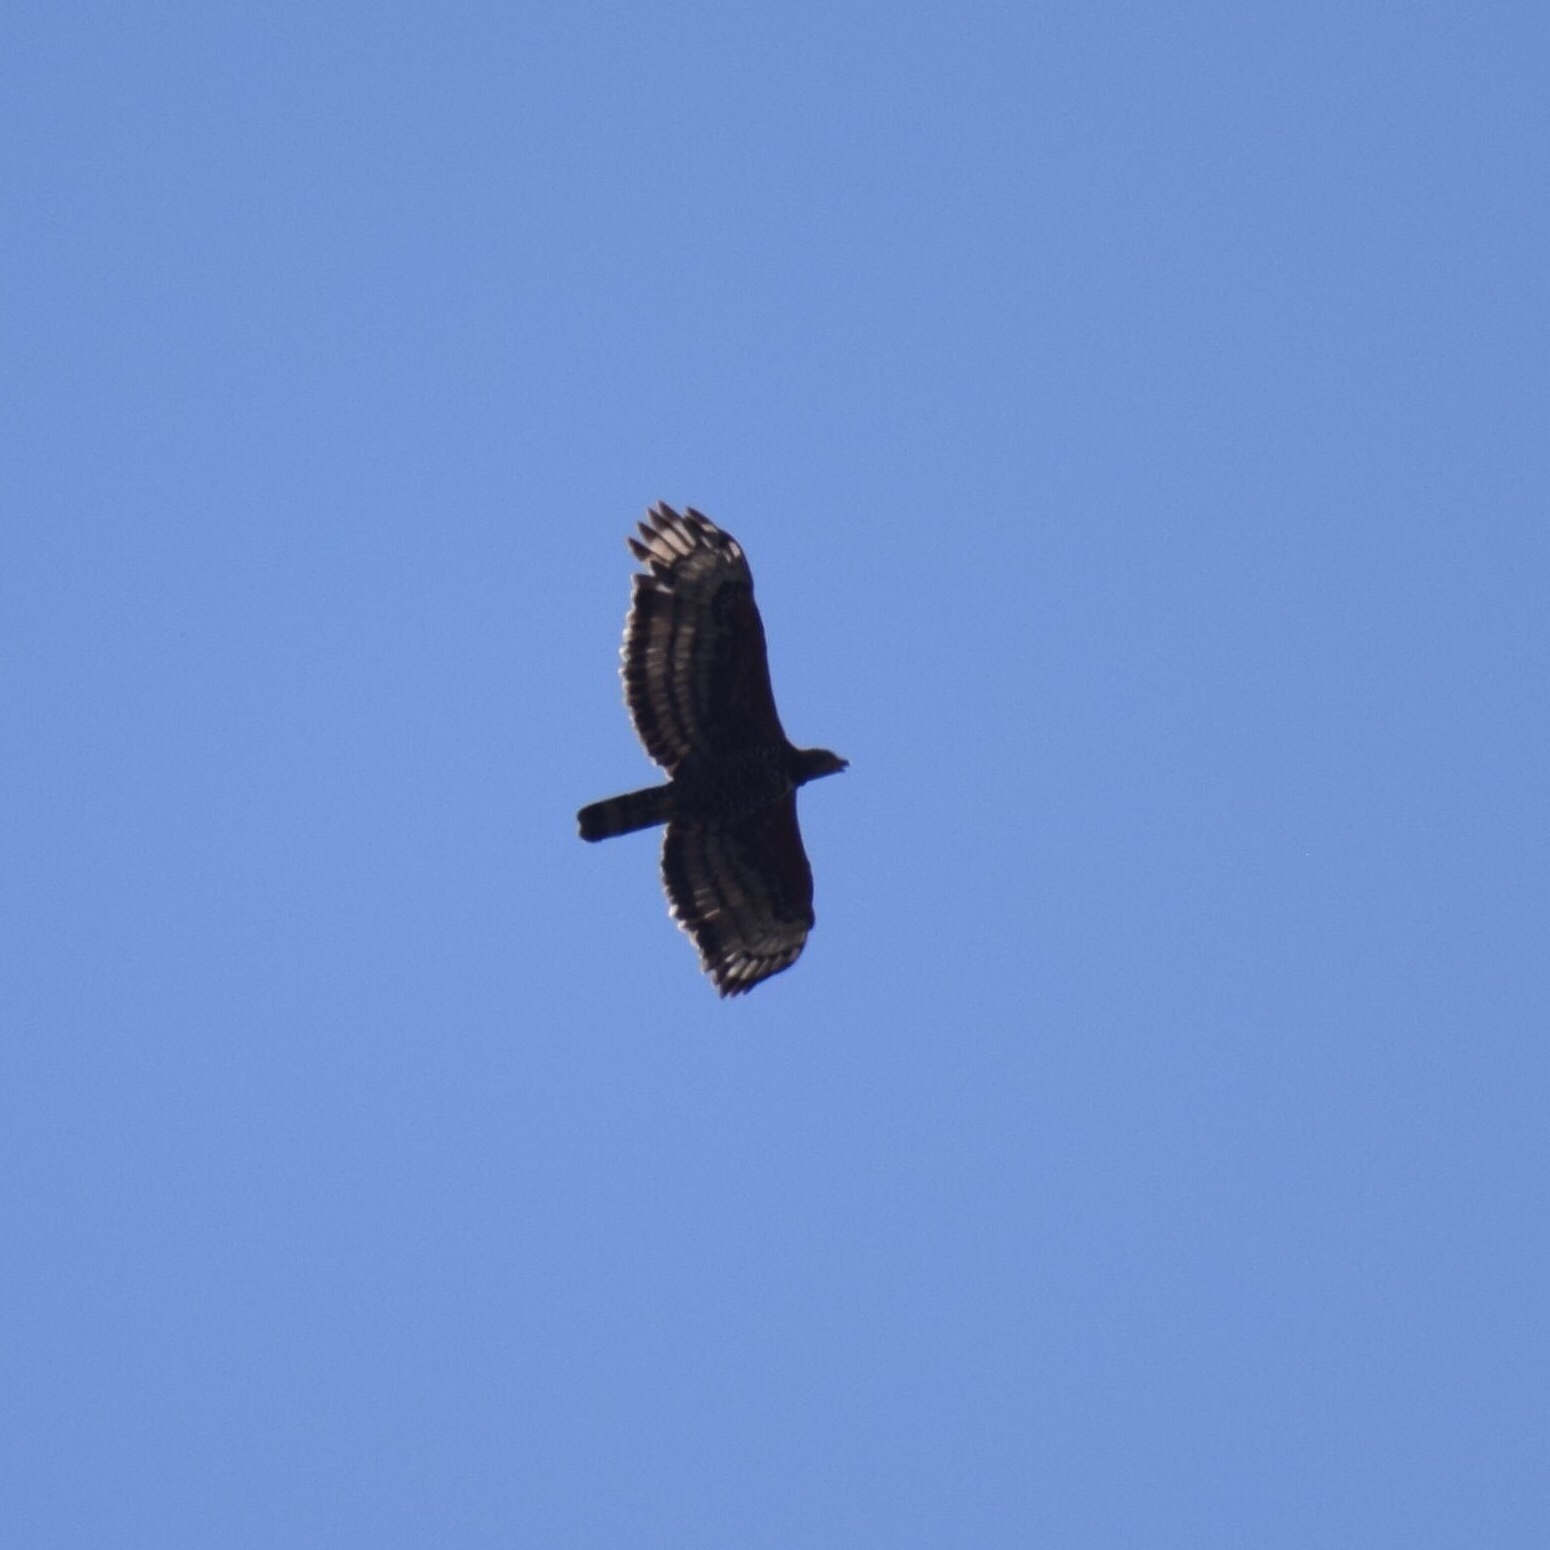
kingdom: Animalia
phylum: Chordata
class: Aves
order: Accipitriformes
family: Accipitridae
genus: Stephanoaetus
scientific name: Stephanoaetus coronatus
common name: Crowned eagle
